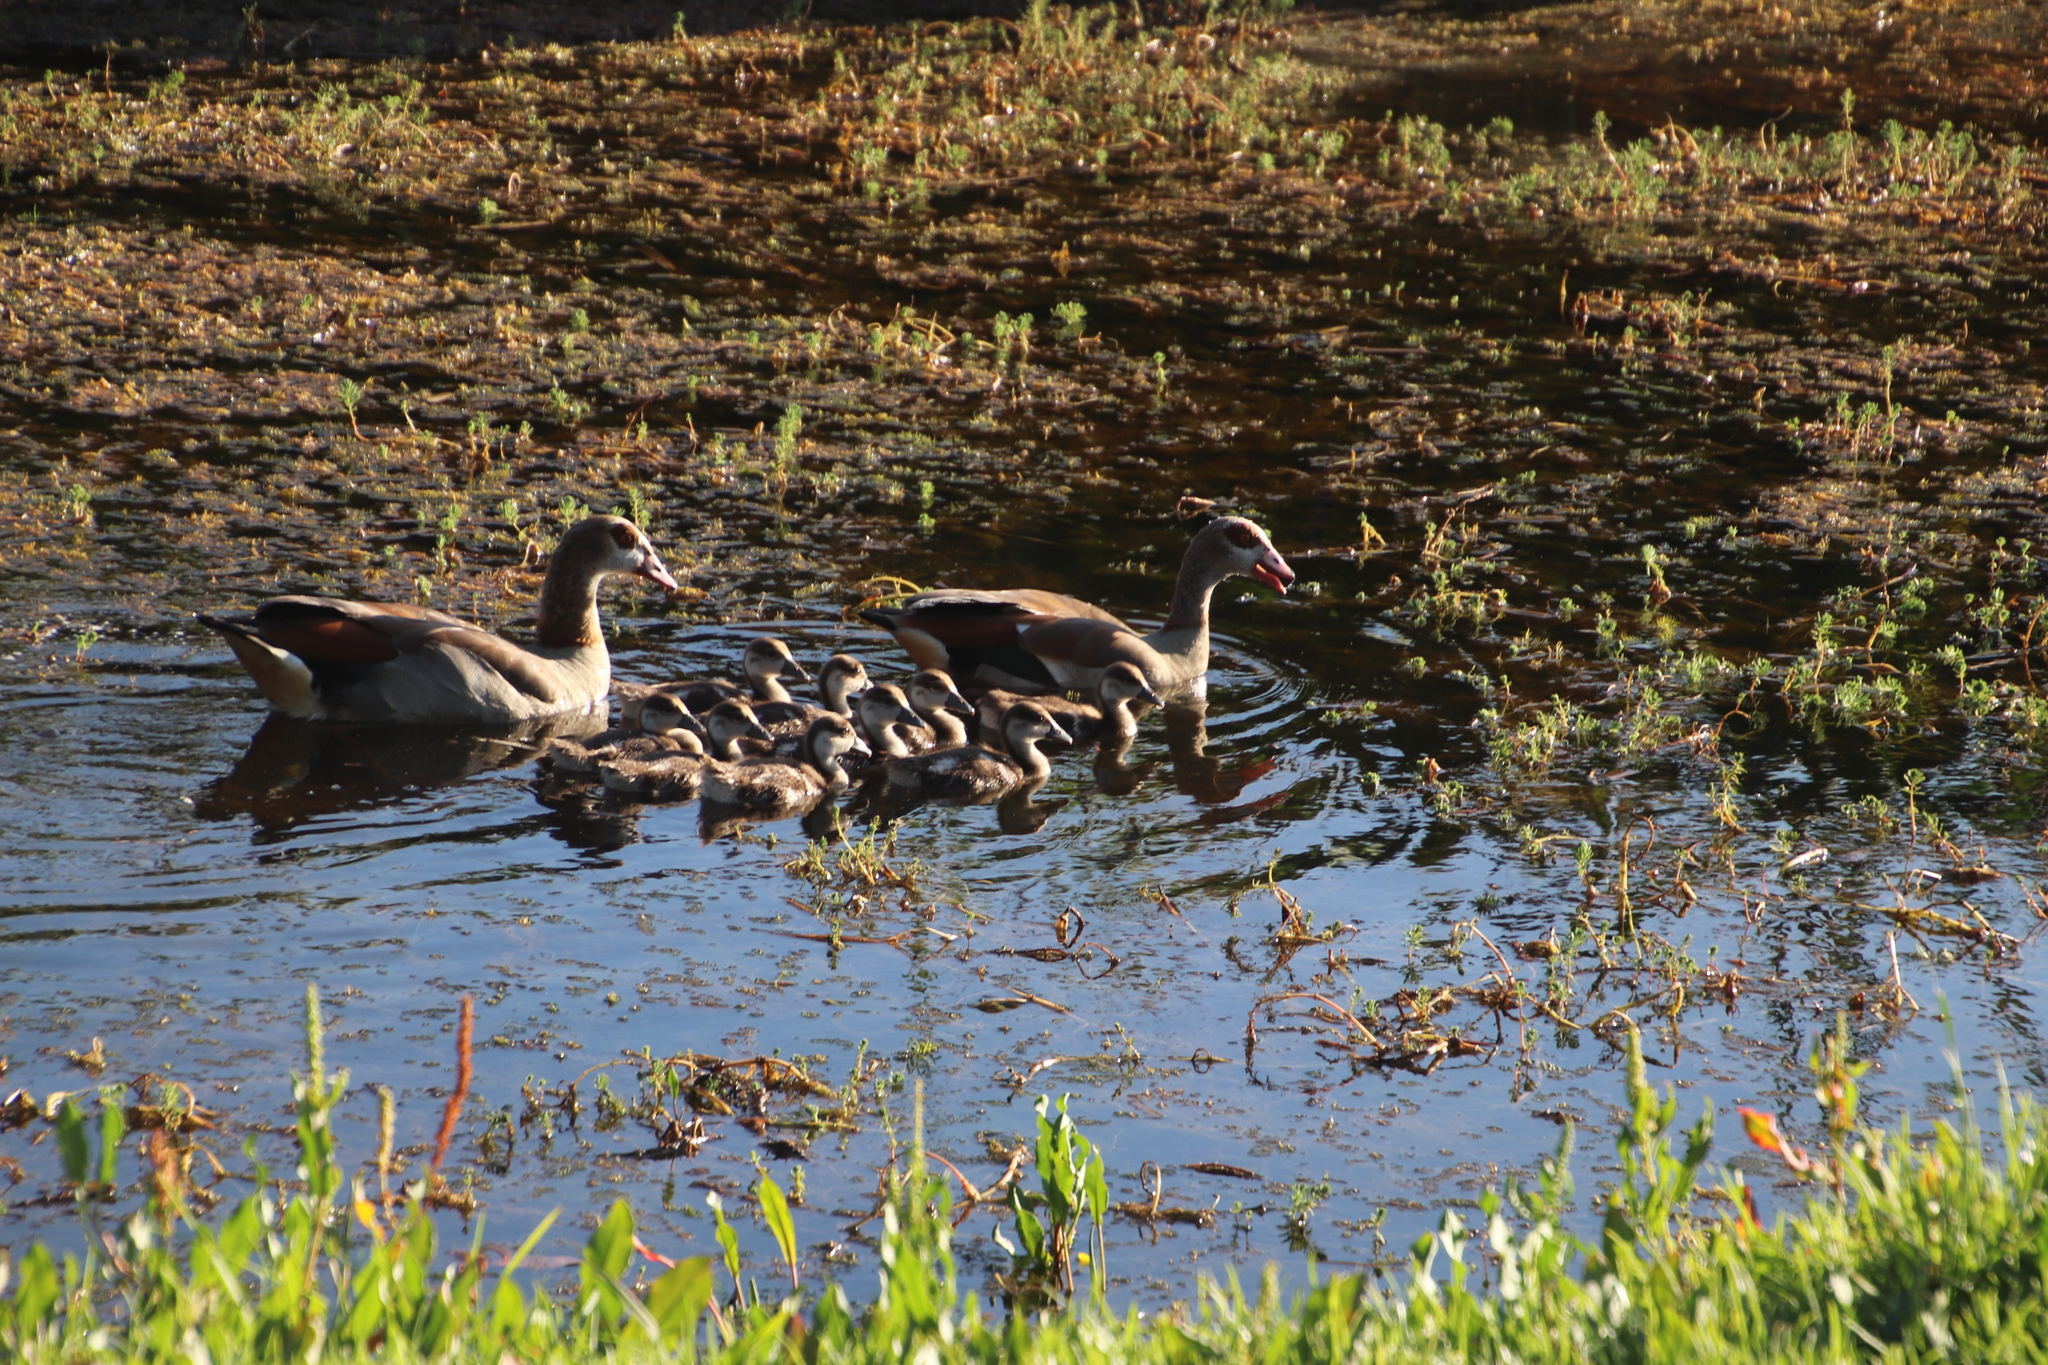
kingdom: Animalia
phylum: Chordata
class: Aves
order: Anseriformes
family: Anatidae
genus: Alopochen
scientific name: Alopochen aegyptiaca
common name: Egyptian goose
